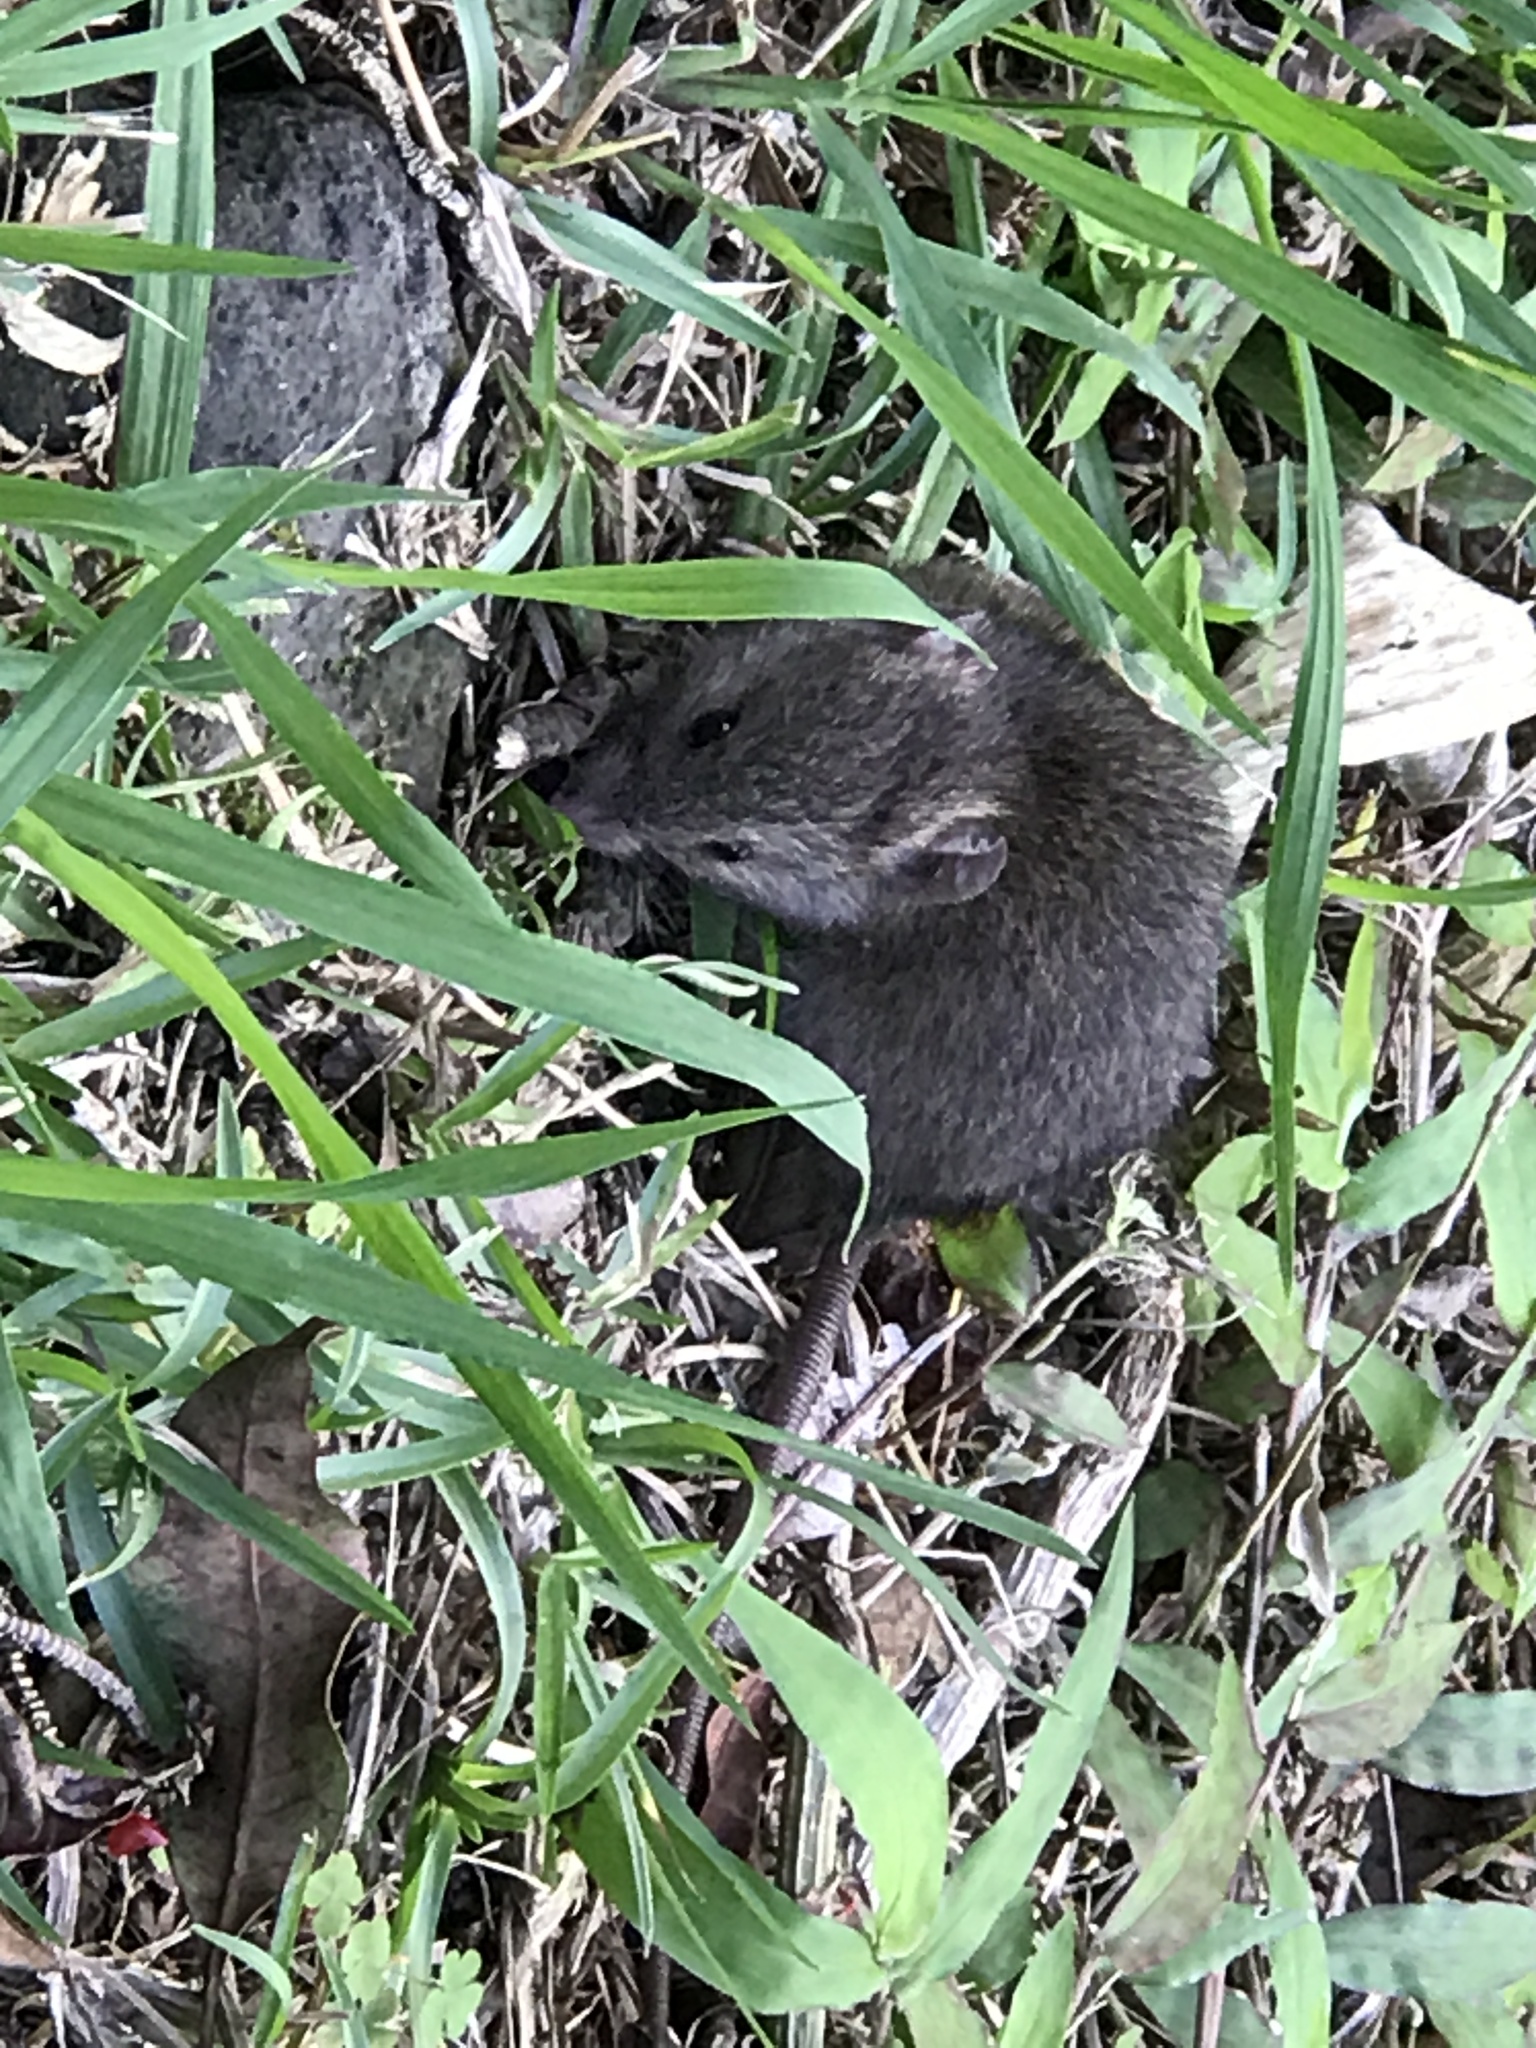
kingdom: Animalia
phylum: Chordata
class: Mammalia
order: Rodentia
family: Muridae
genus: Mus
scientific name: Mus musculus
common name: House mouse
